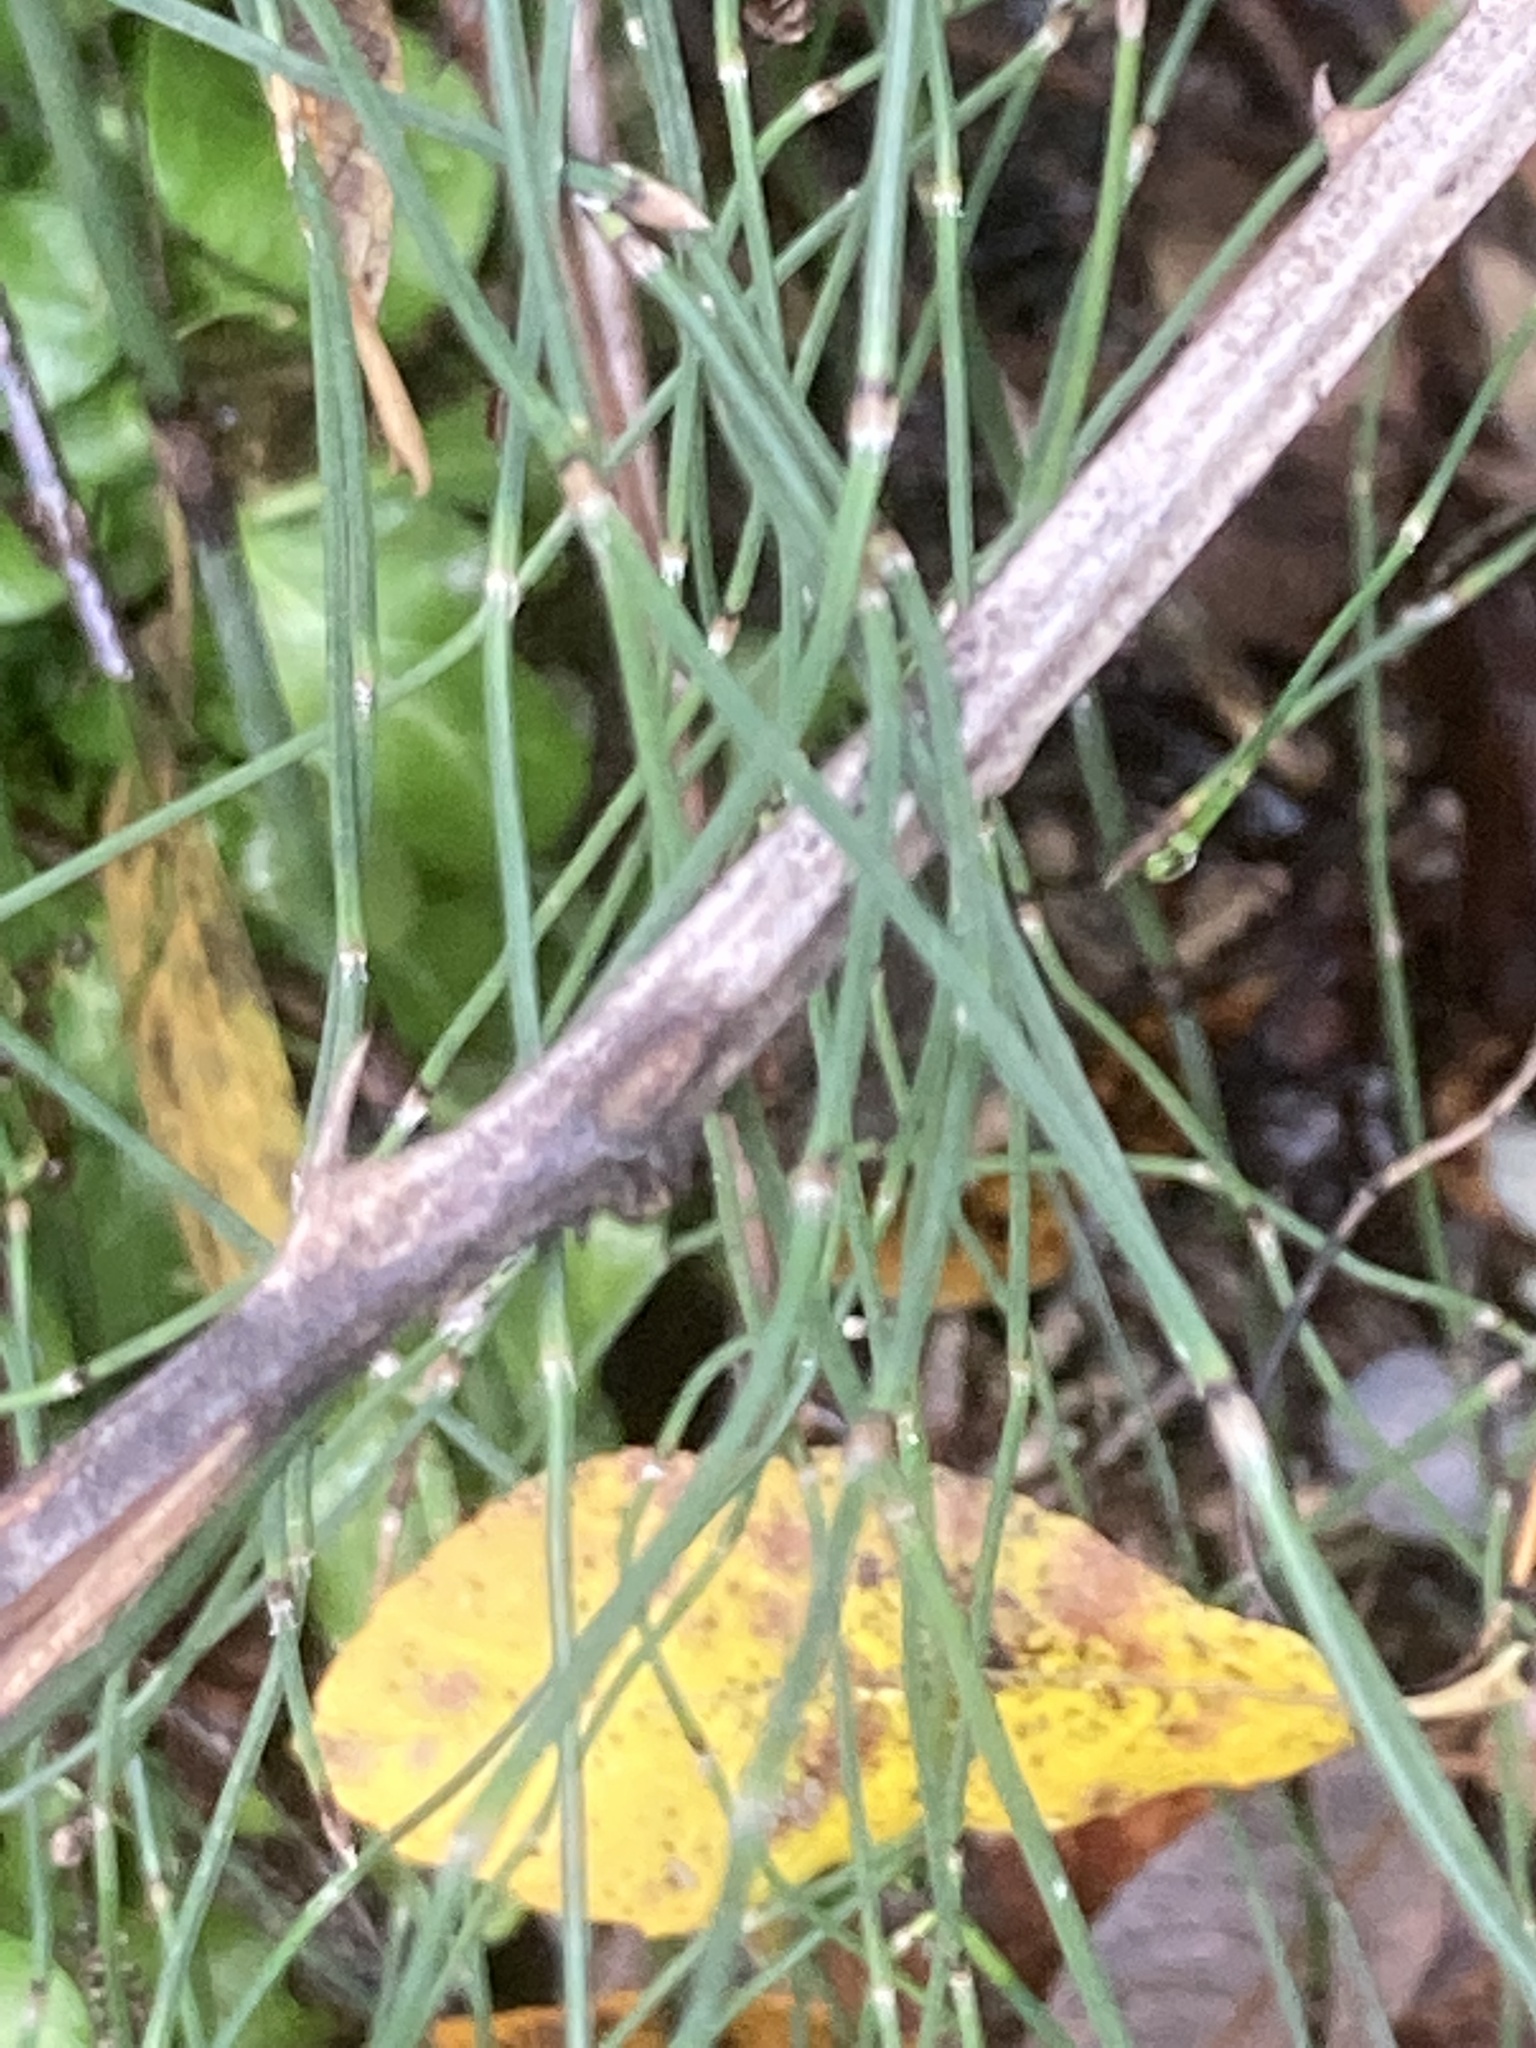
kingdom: Plantae
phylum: Tracheophyta
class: Polypodiopsida
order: Equisetales
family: Equisetaceae
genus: Equisetum
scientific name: Equisetum ramosissimum
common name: Branched horsetail
